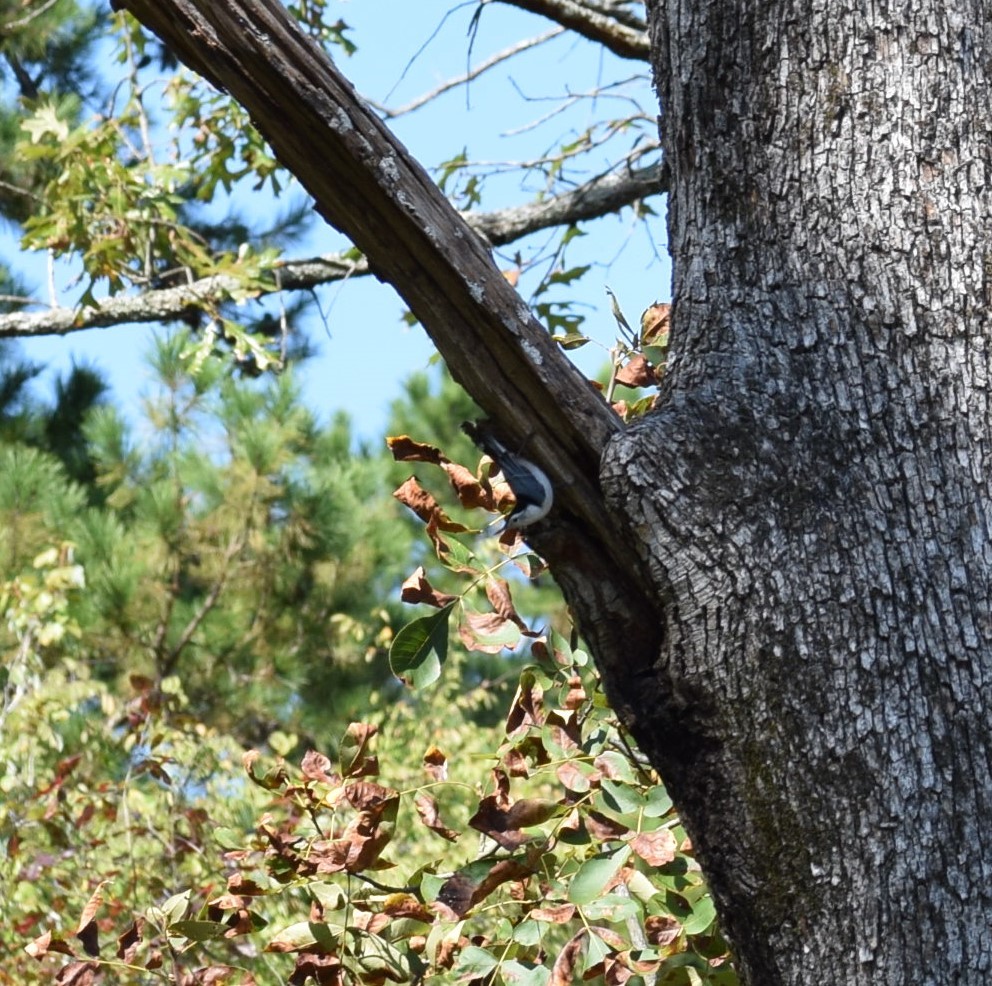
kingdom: Animalia
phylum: Chordata
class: Aves
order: Passeriformes
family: Sittidae
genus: Sitta
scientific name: Sitta carolinensis
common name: White-breasted nuthatch
